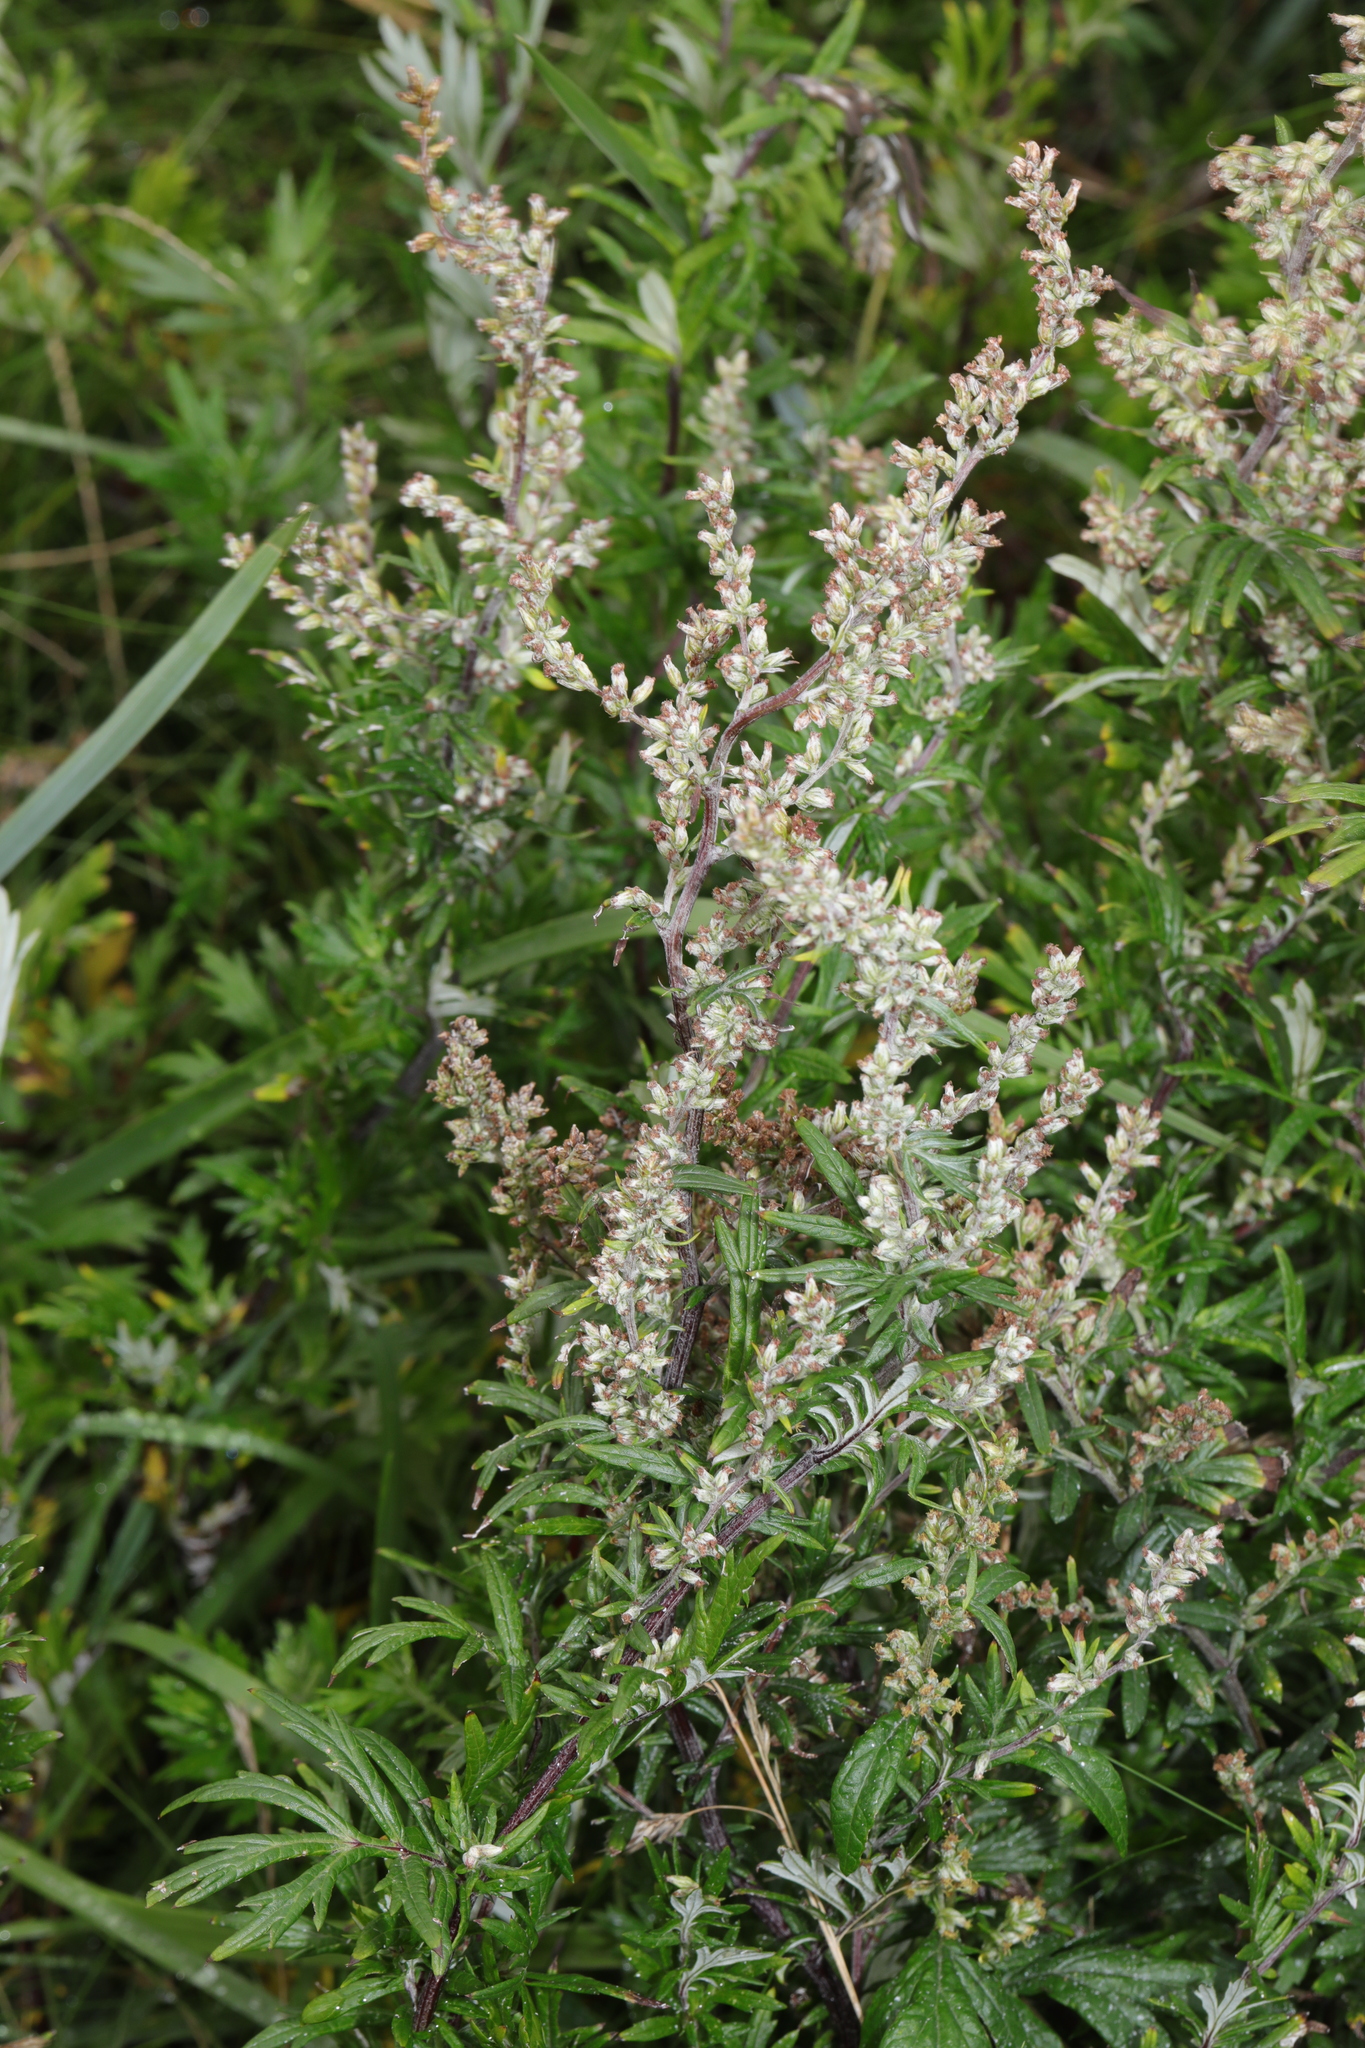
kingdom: Plantae
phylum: Tracheophyta
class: Magnoliopsida
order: Asterales
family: Asteraceae
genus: Artemisia
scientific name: Artemisia vulgaris
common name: Mugwort
